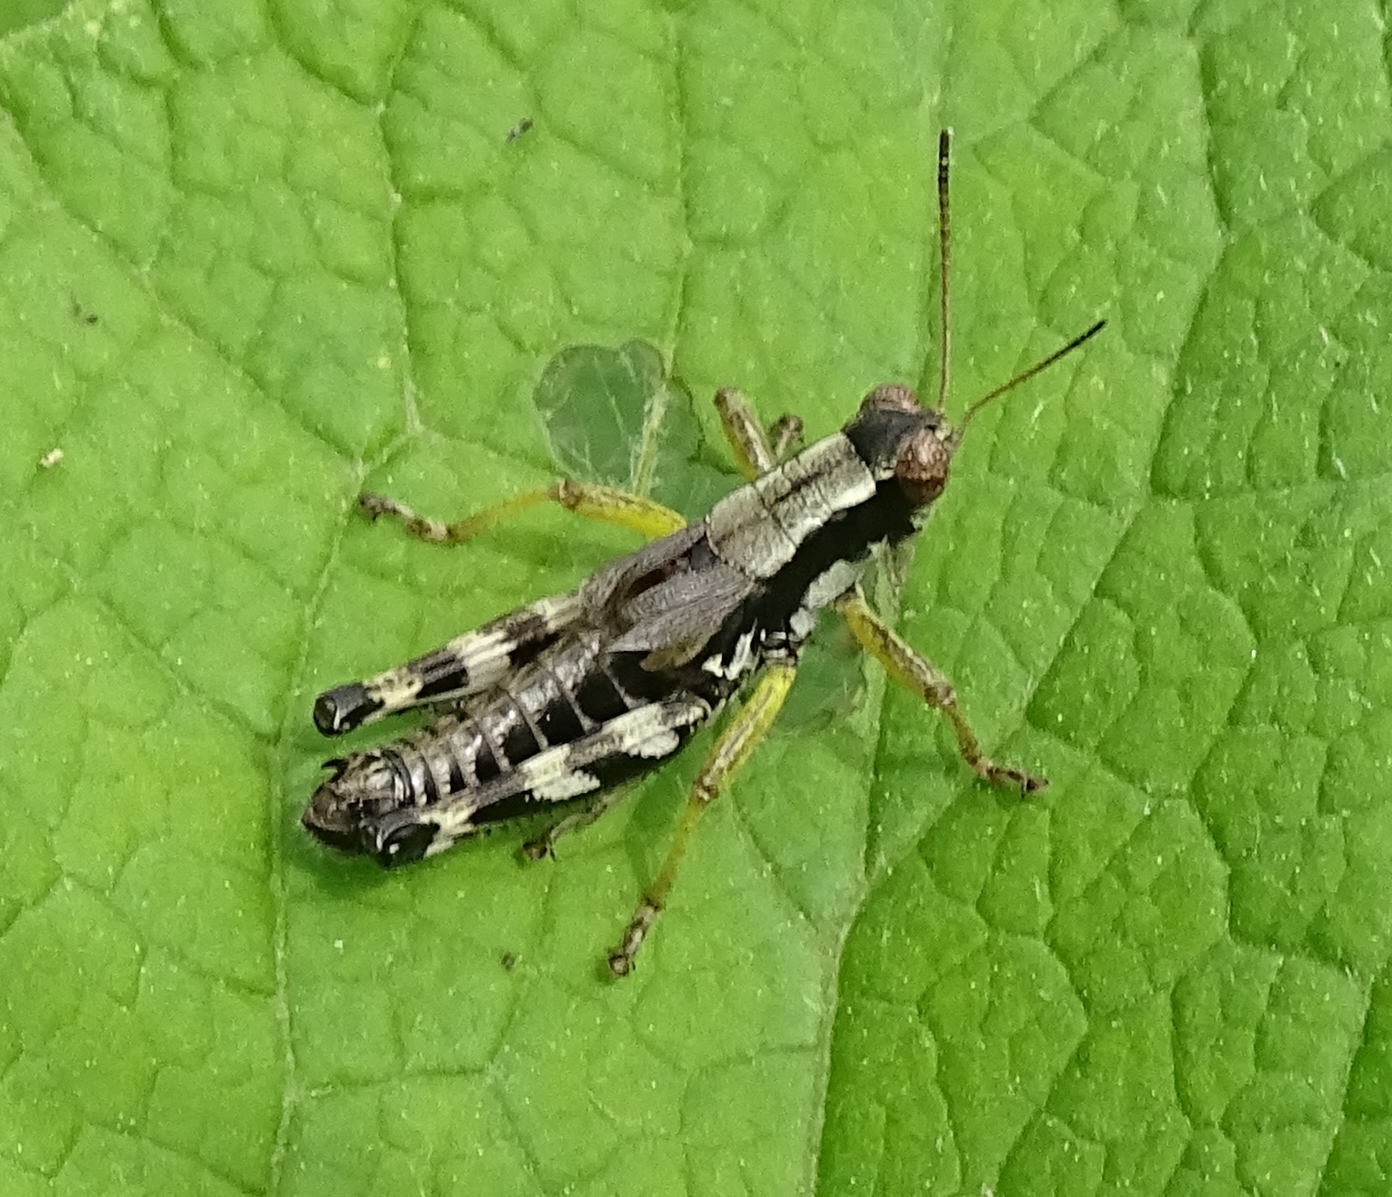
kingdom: Animalia
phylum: Arthropoda
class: Insecta
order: Orthoptera
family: Acrididae
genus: Melanoplus
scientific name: Melanoplus viridipes
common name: Green-legged locust
